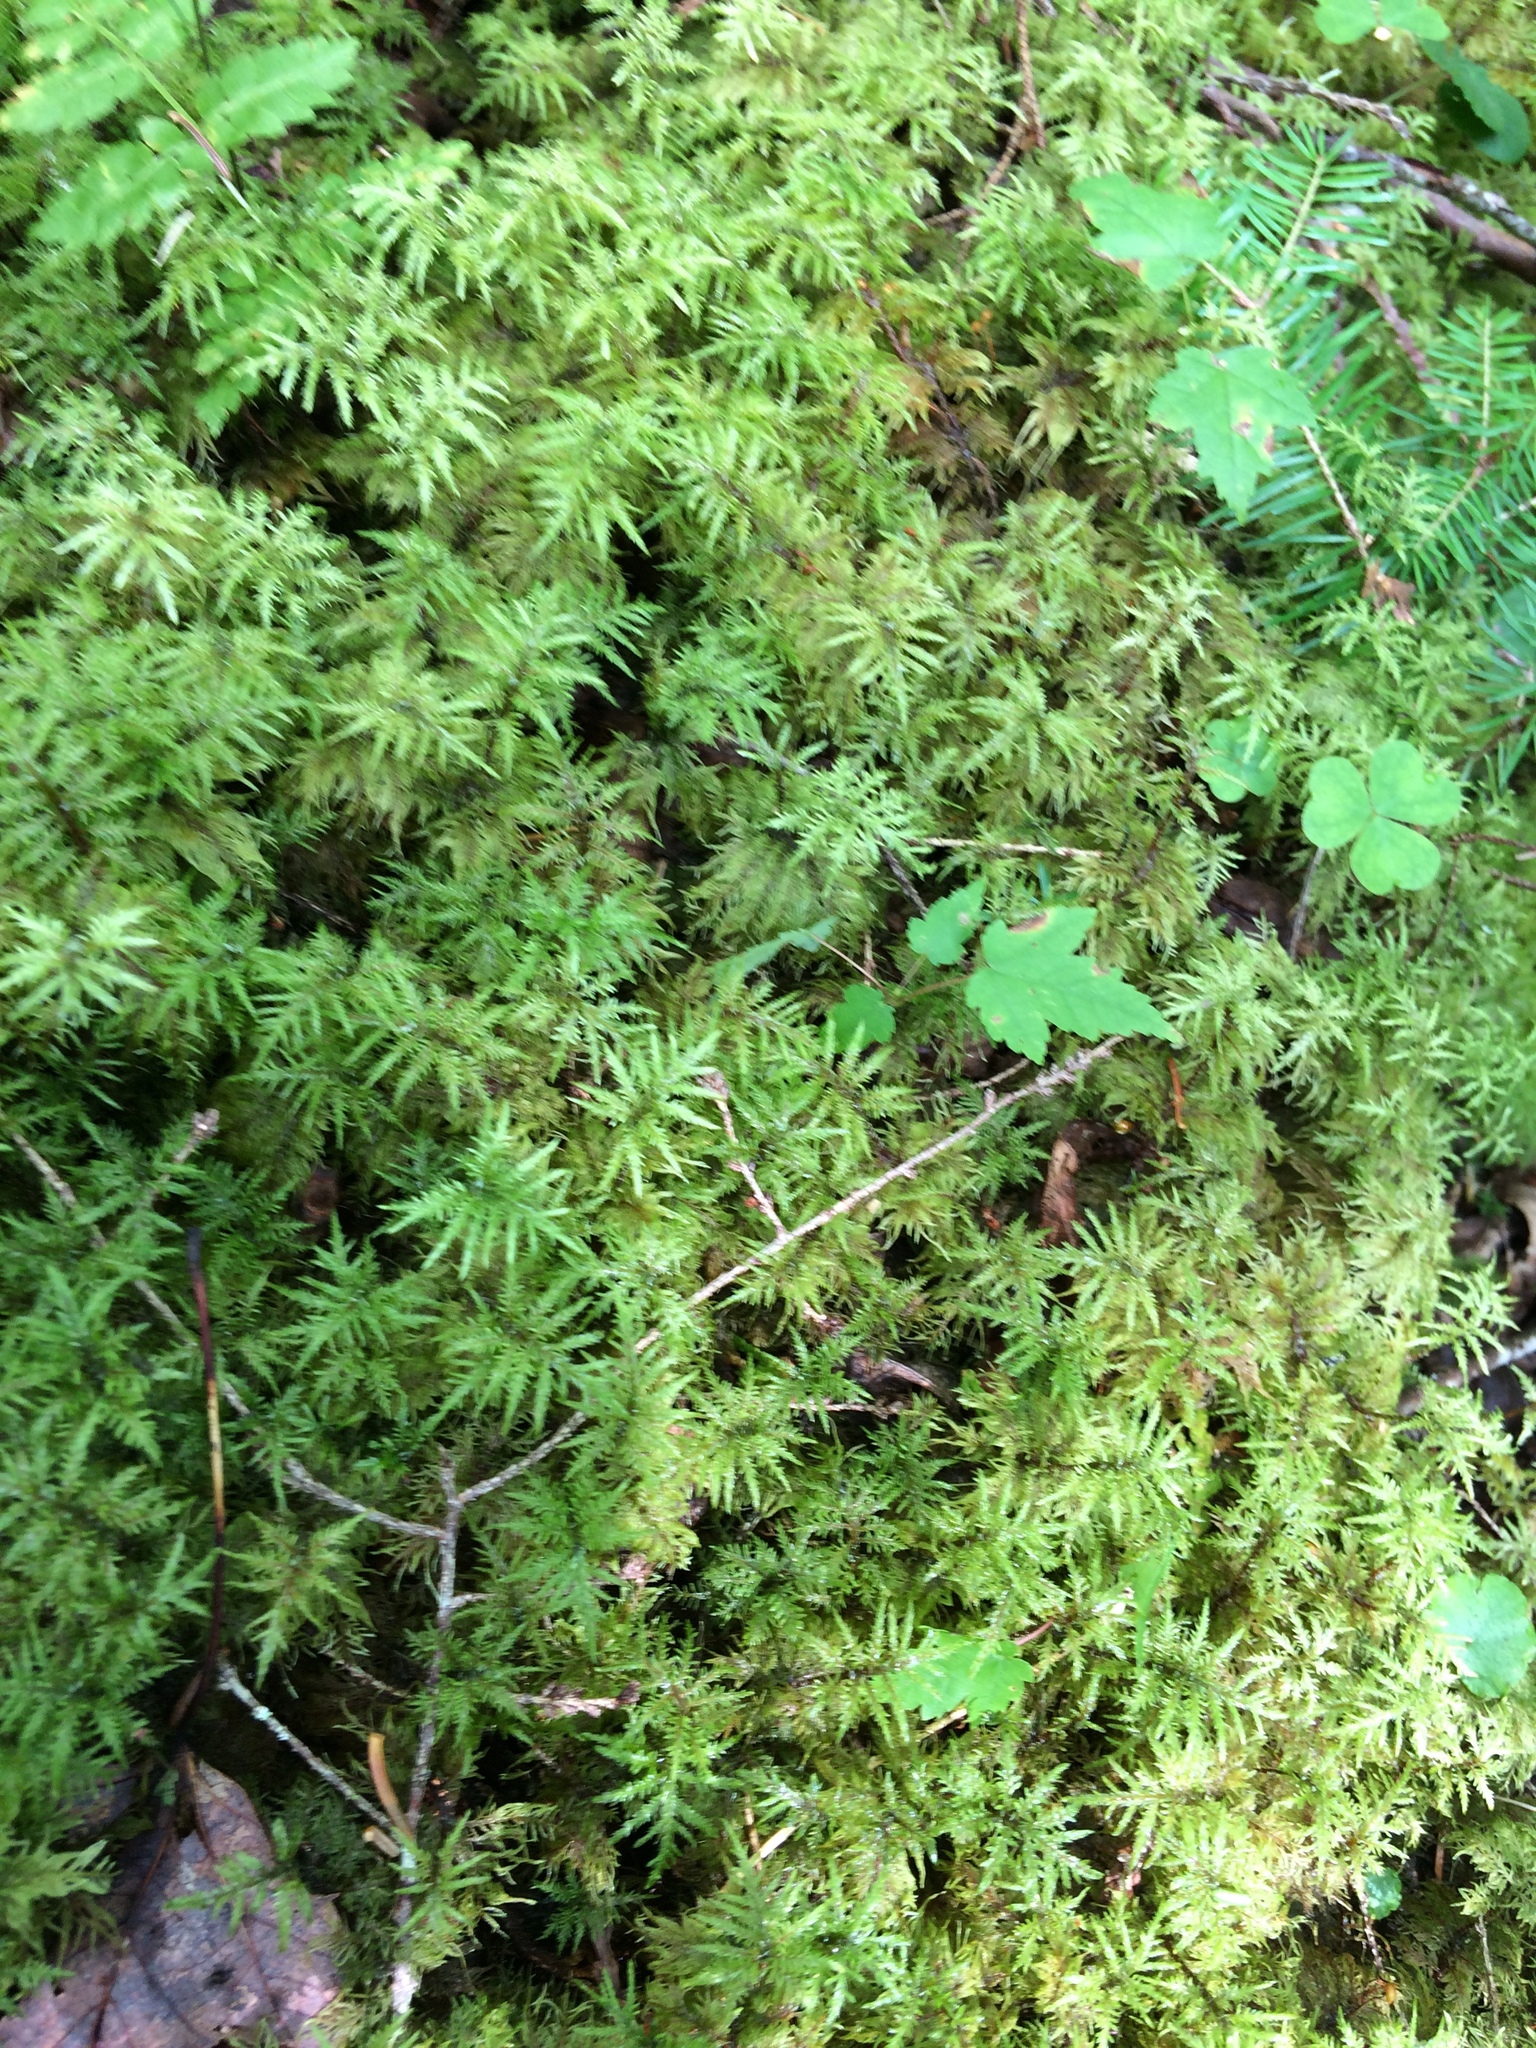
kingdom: Plantae
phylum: Bryophyta
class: Bryopsida
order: Hypnales
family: Hylocomiaceae
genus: Hylocomium
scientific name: Hylocomium splendens
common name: Stairstep moss
